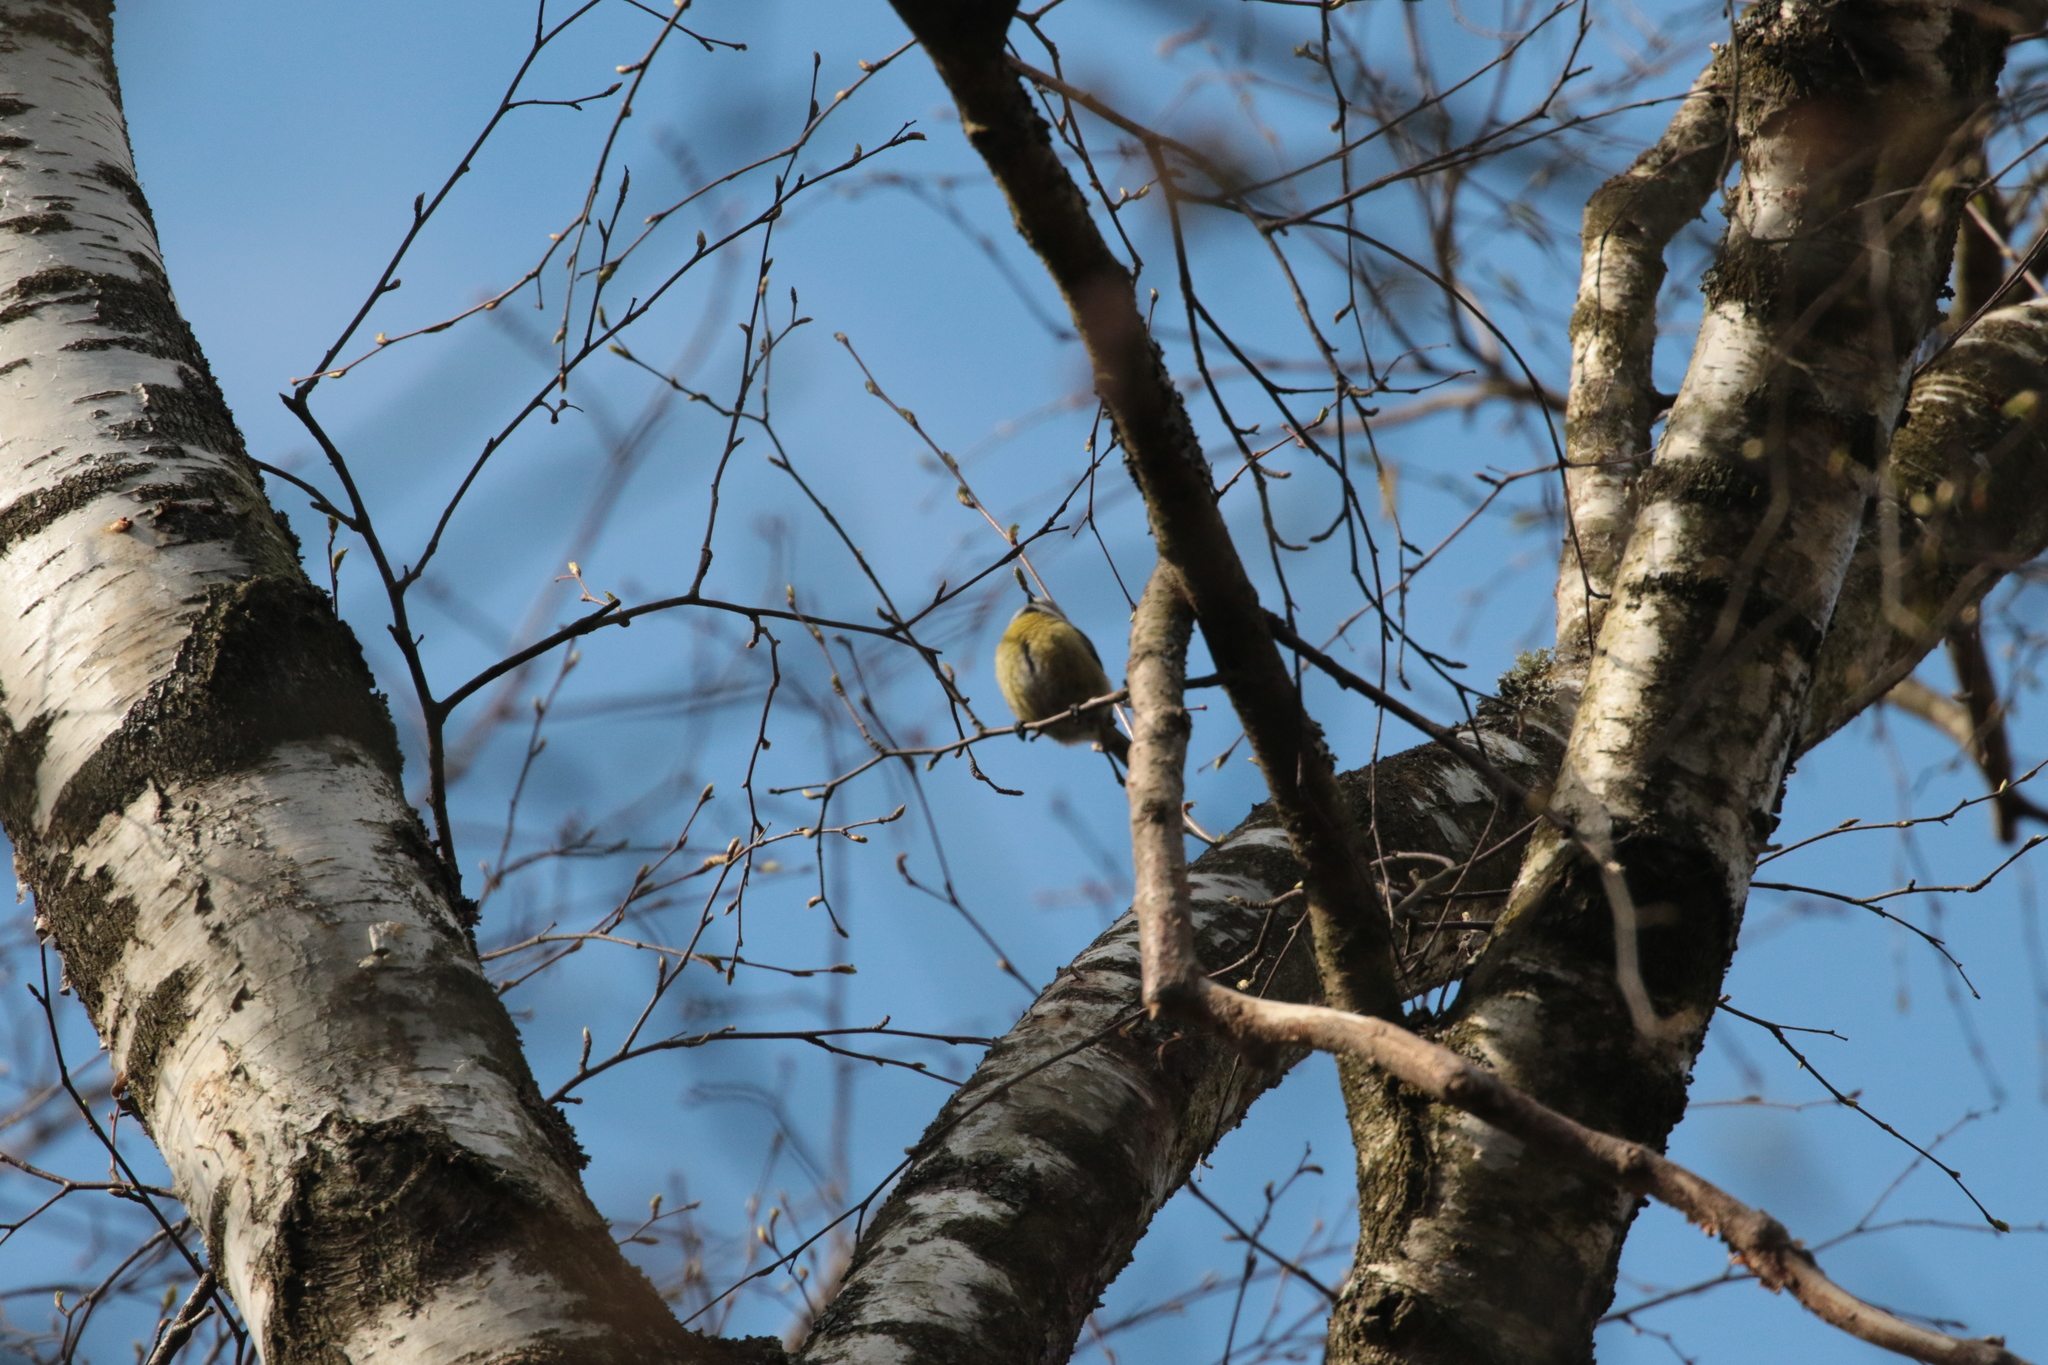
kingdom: Animalia
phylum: Chordata
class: Aves
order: Passeriformes
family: Paridae
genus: Cyanistes
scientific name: Cyanistes caeruleus
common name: Eurasian blue tit
